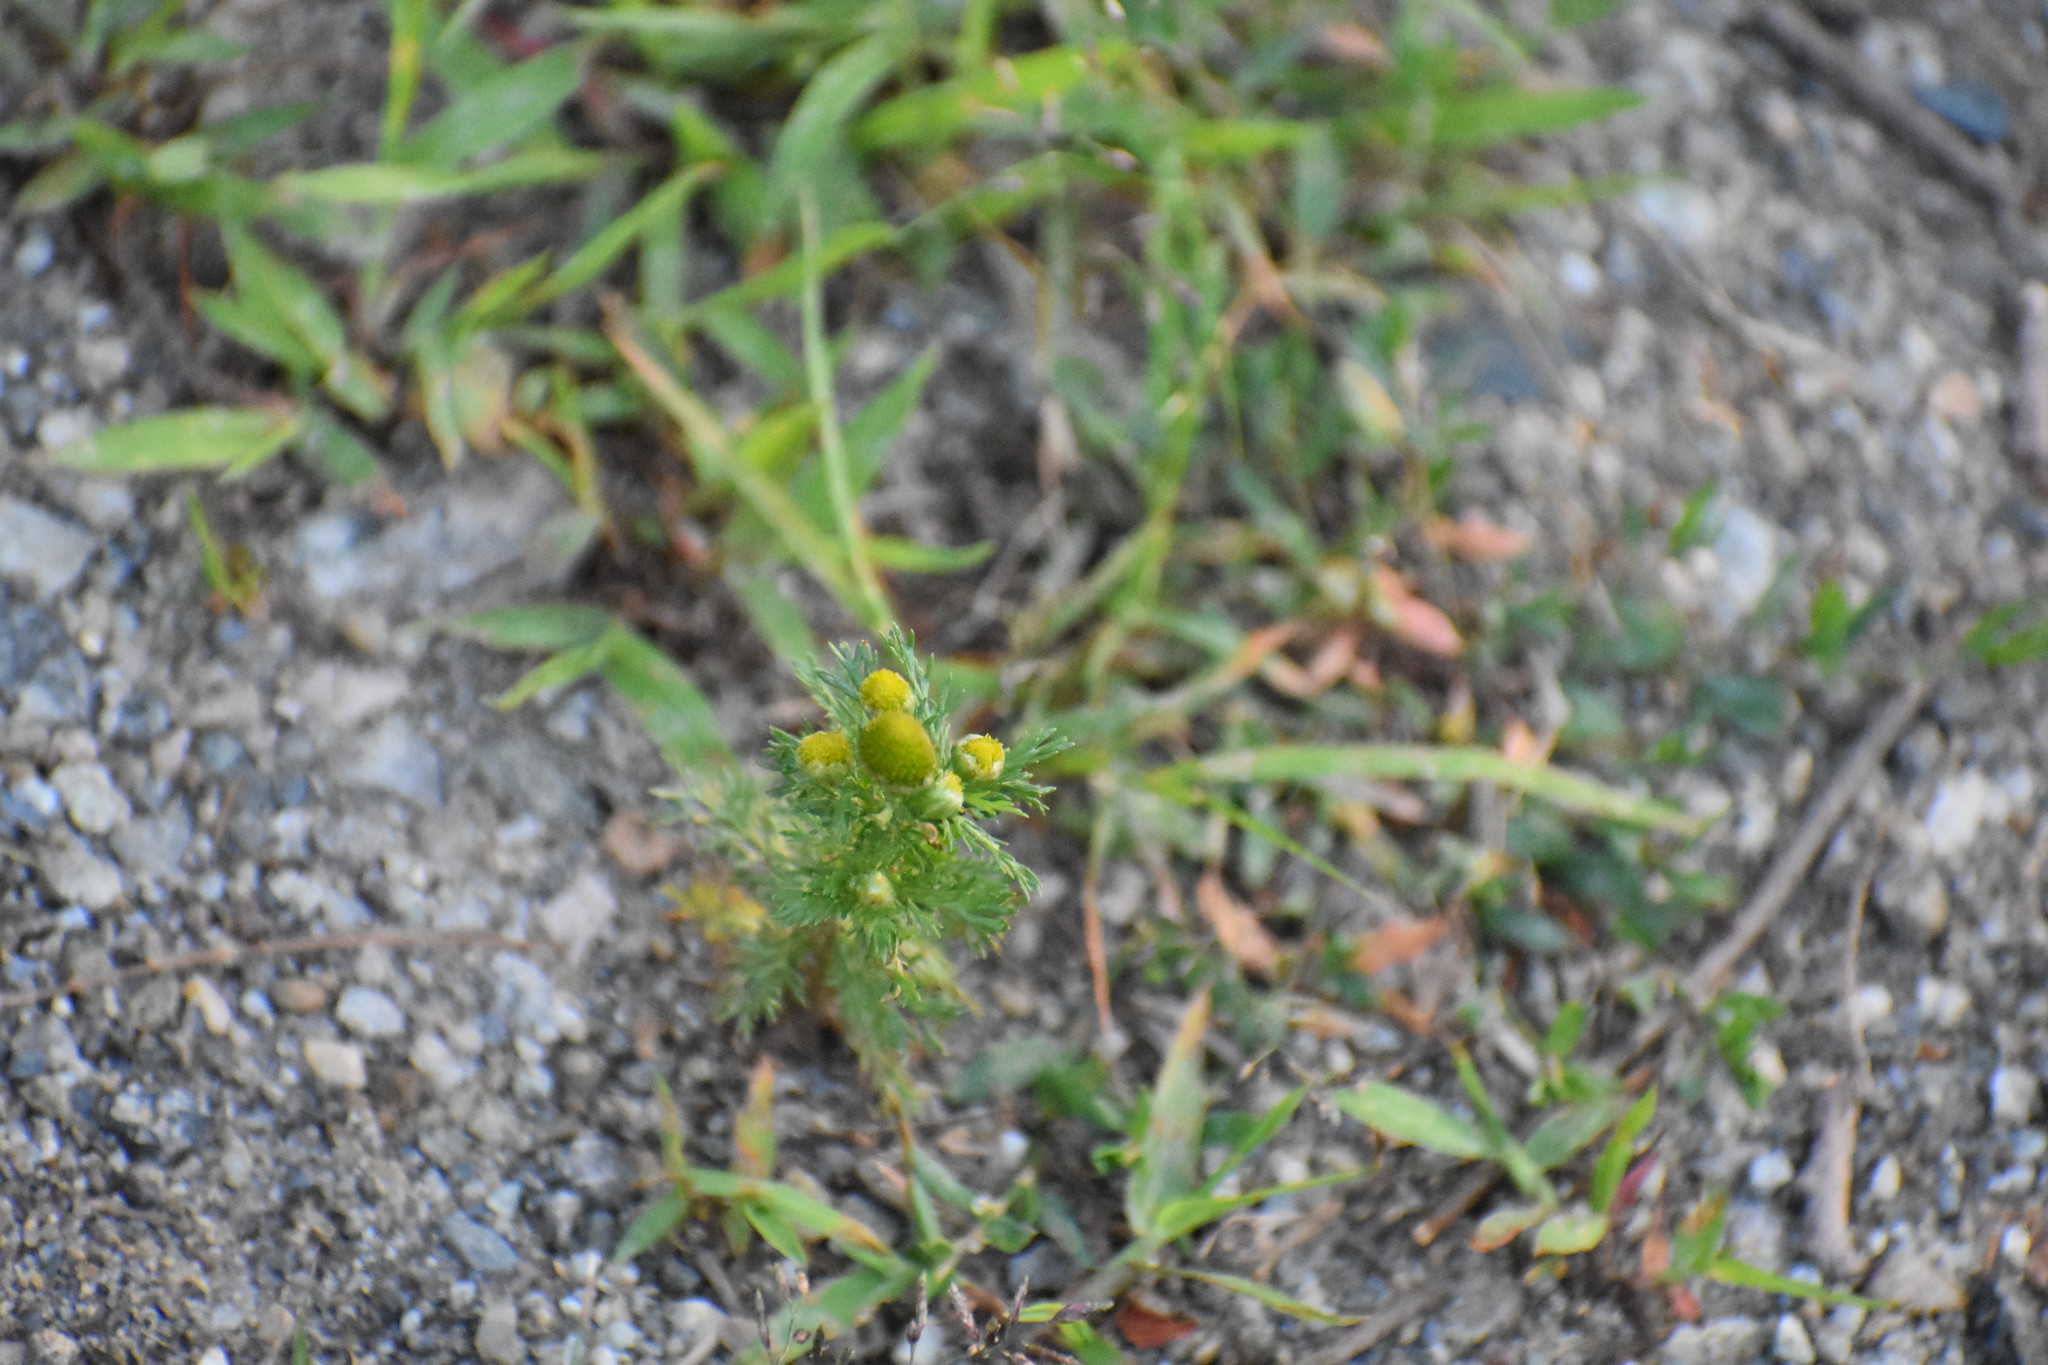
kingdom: Plantae
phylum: Tracheophyta
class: Magnoliopsida
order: Asterales
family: Asteraceae
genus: Matricaria
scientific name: Matricaria discoidea
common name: Disc mayweed
